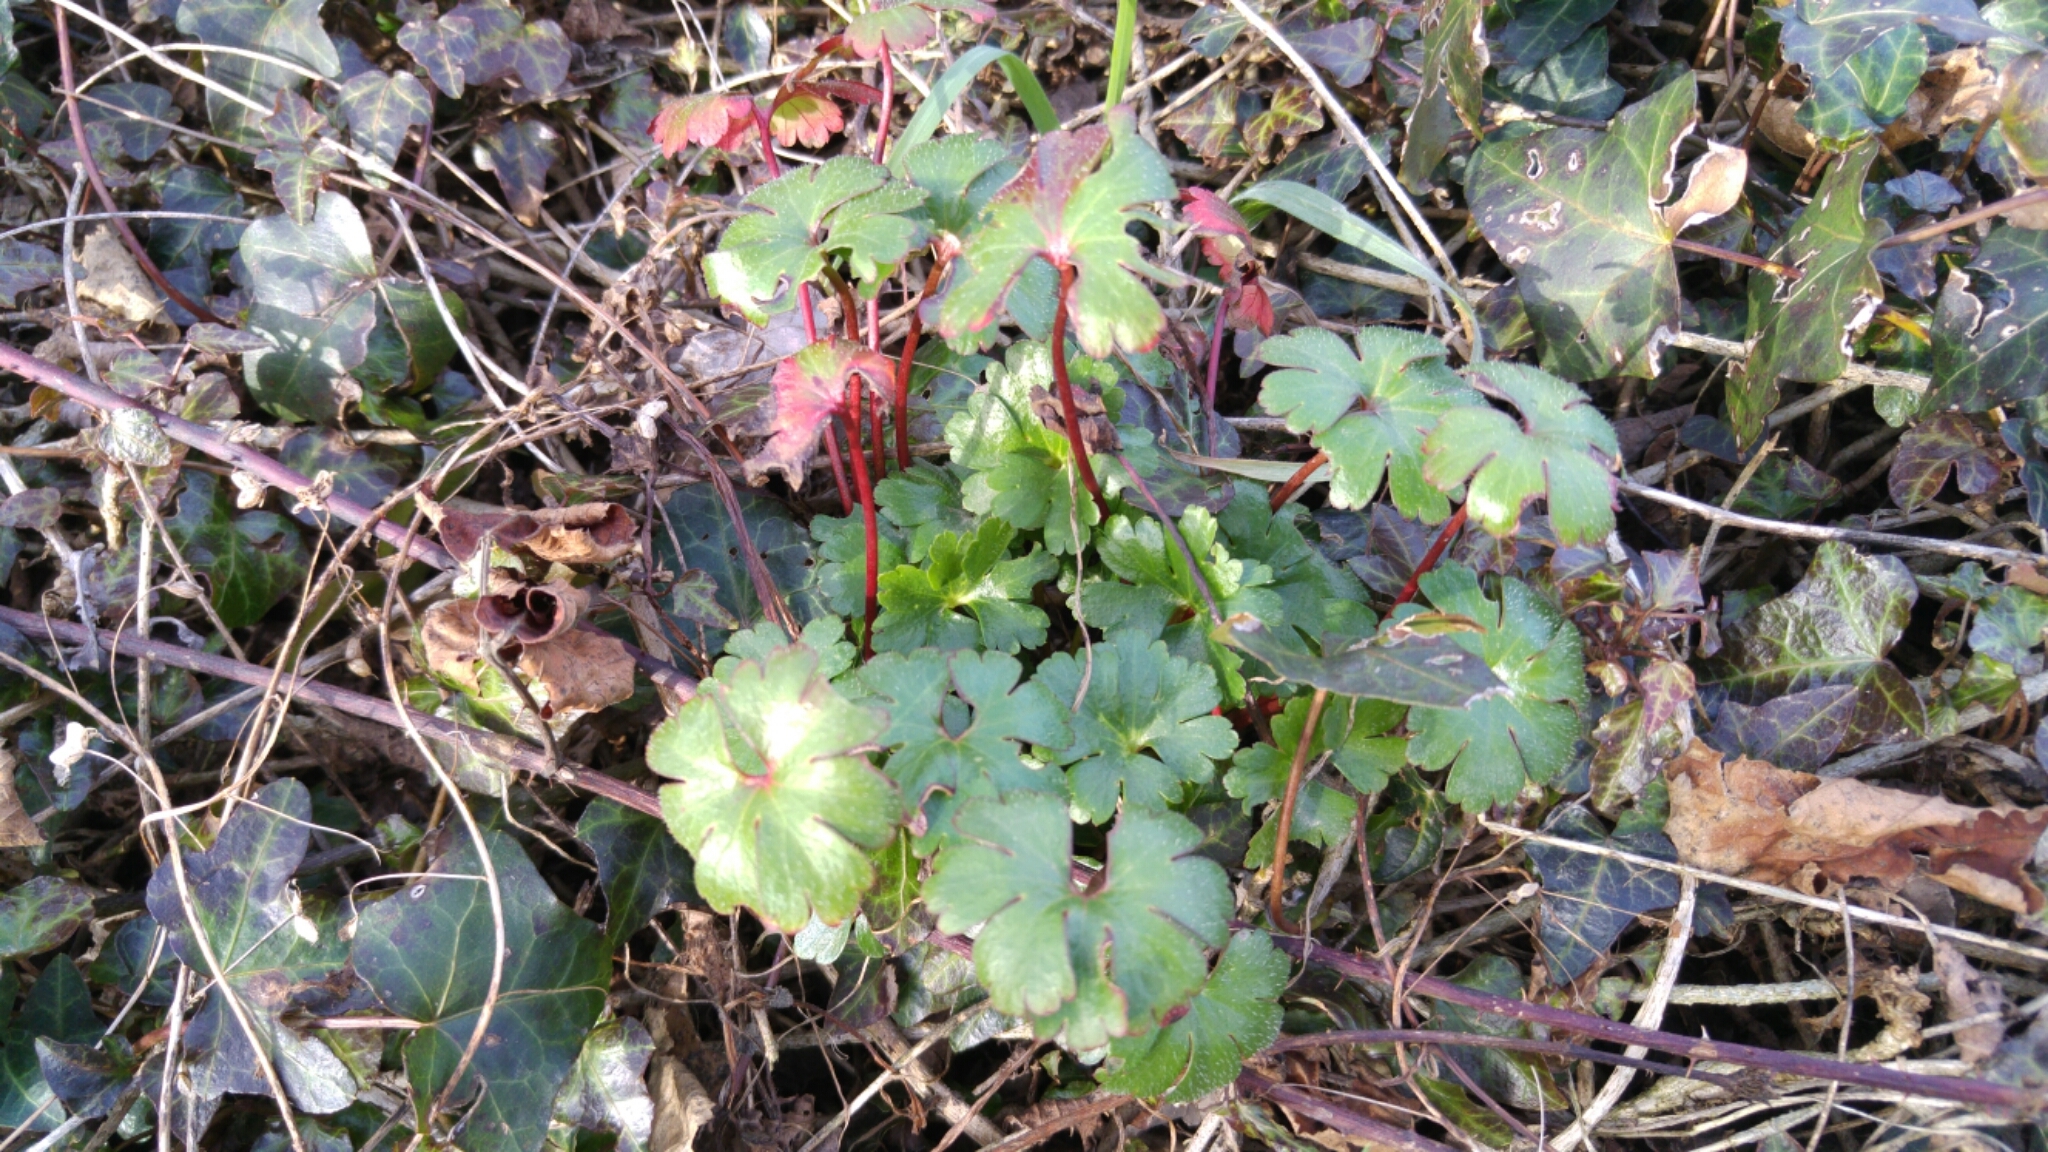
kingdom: Plantae
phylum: Tracheophyta
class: Magnoliopsida
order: Geraniales
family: Geraniaceae
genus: Geranium
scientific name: Geranium lucidum
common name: Shining crane's-bill
